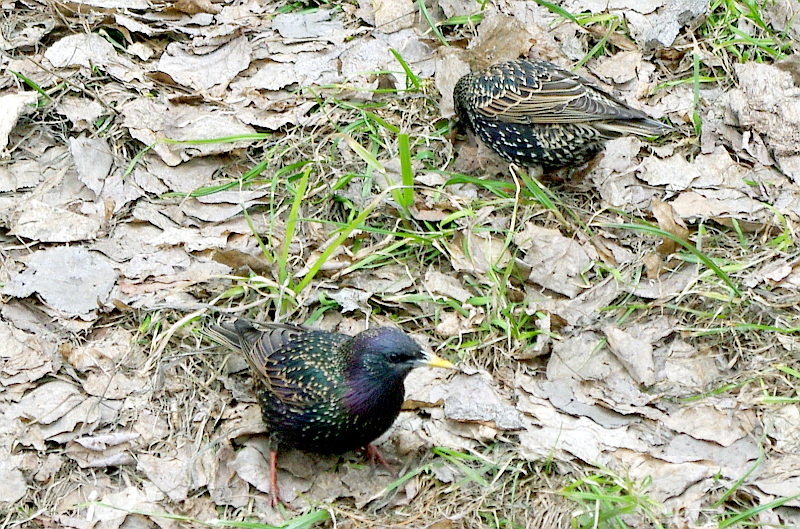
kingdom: Animalia
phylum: Chordata
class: Aves
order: Passeriformes
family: Sturnidae
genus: Sturnus
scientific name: Sturnus vulgaris
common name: Common starling
